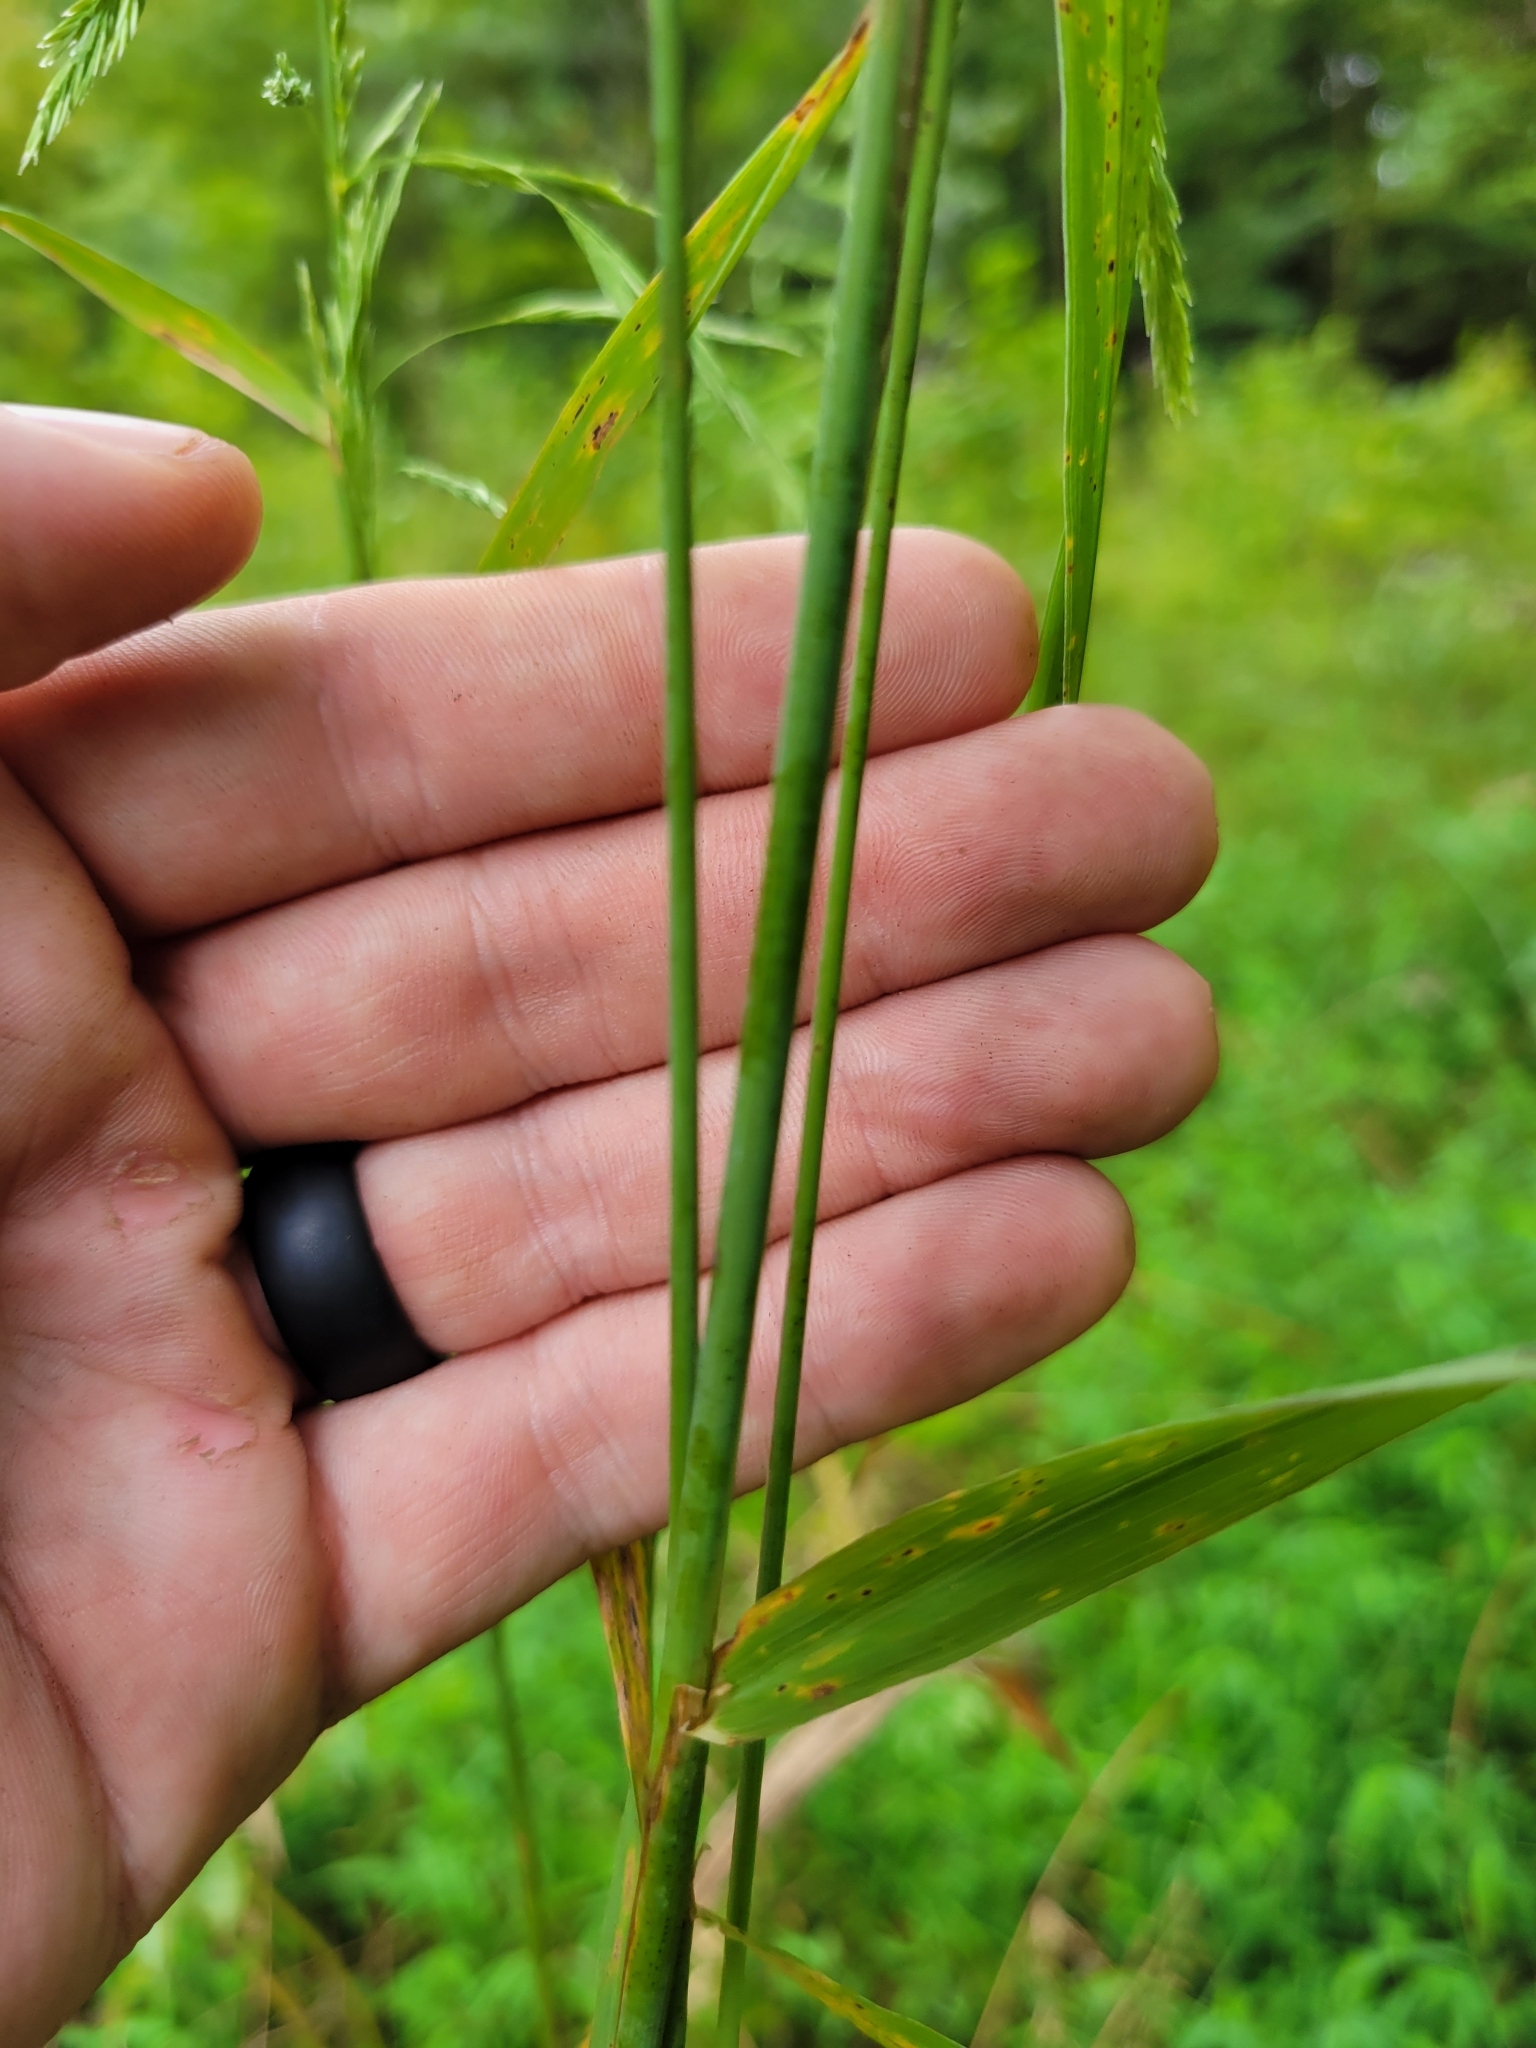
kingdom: Plantae
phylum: Tracheophyta
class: Liliopsida
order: Poales
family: Poaceae
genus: Cinna
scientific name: Cinna arundinacea
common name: Stout woodreed
